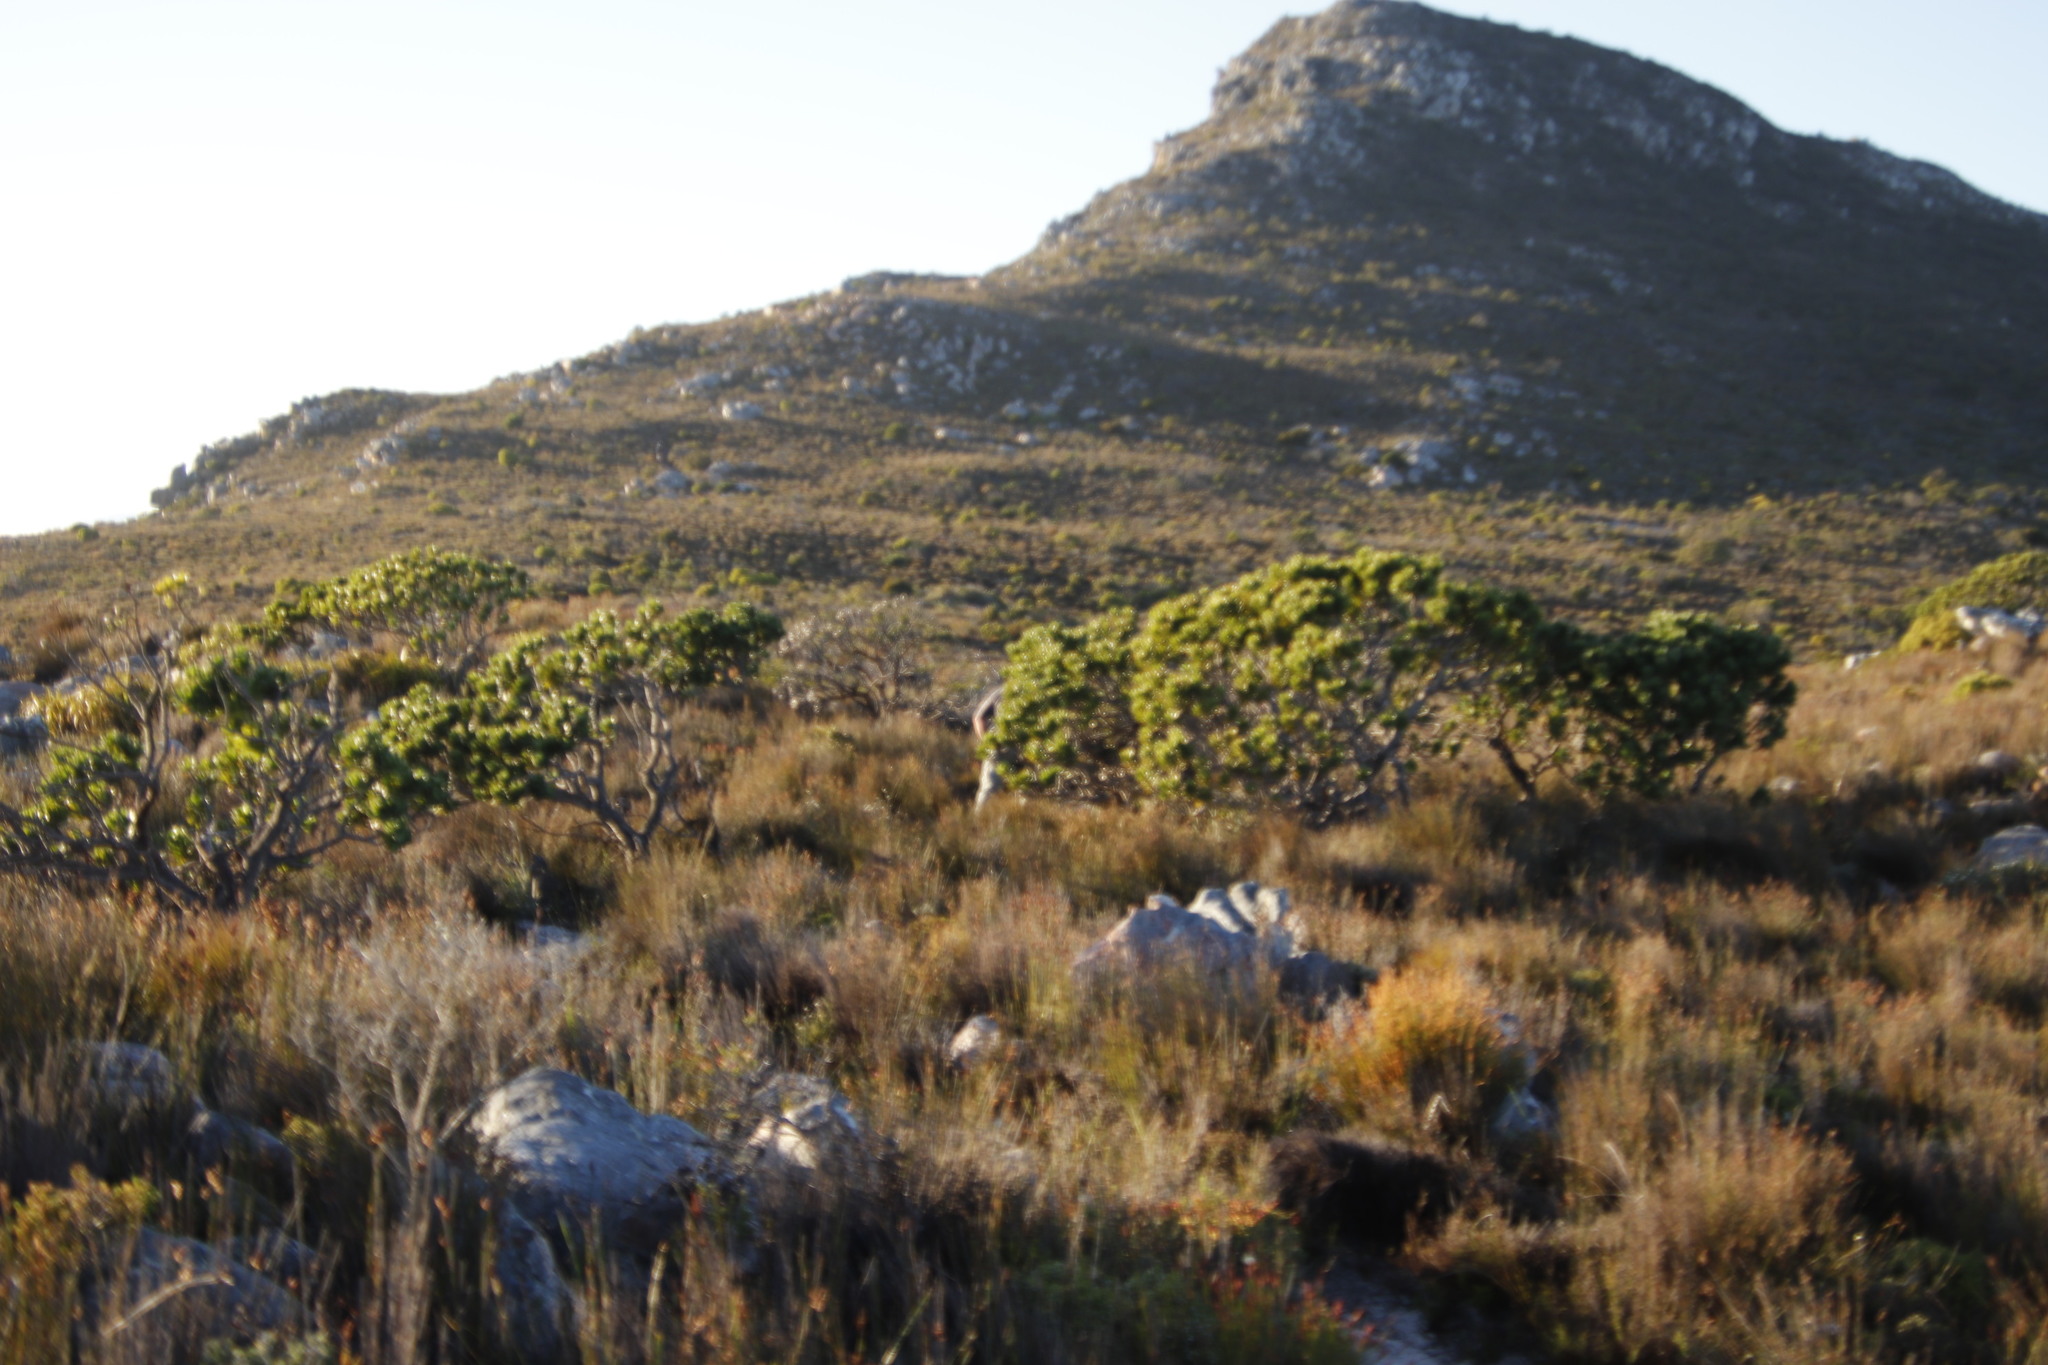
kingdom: Plantae
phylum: Tracheophyta
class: Magnoliopsida
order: Proteales
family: Proteaceae
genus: Leucospermum
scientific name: Leucospermum conocarpodendron
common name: Tree pincushion
